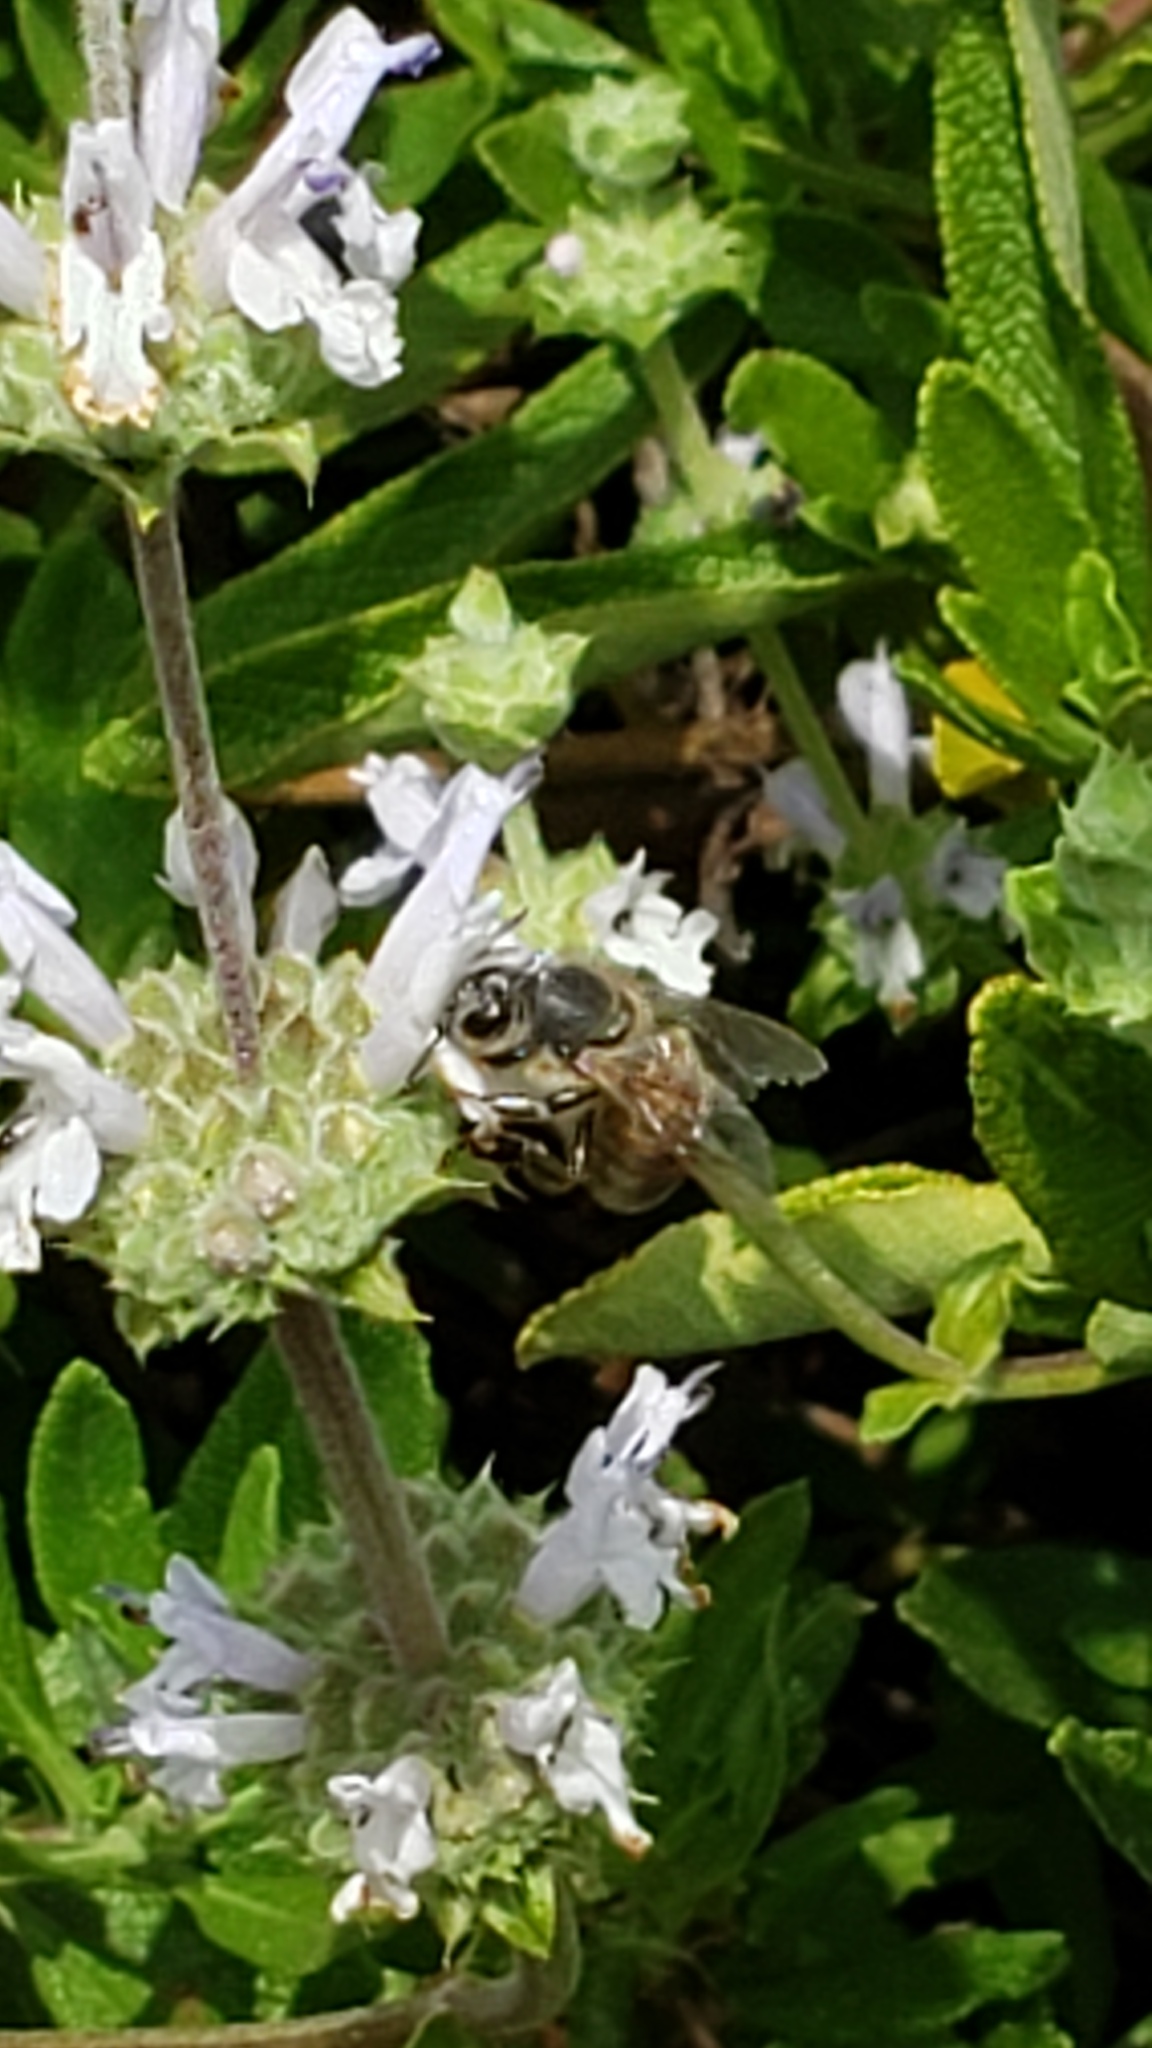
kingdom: Animalia
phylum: Arthropoda
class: Insecta
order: Hymenoptera
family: Apidae
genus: Apis
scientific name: Apis mellifera
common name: Honey bee
